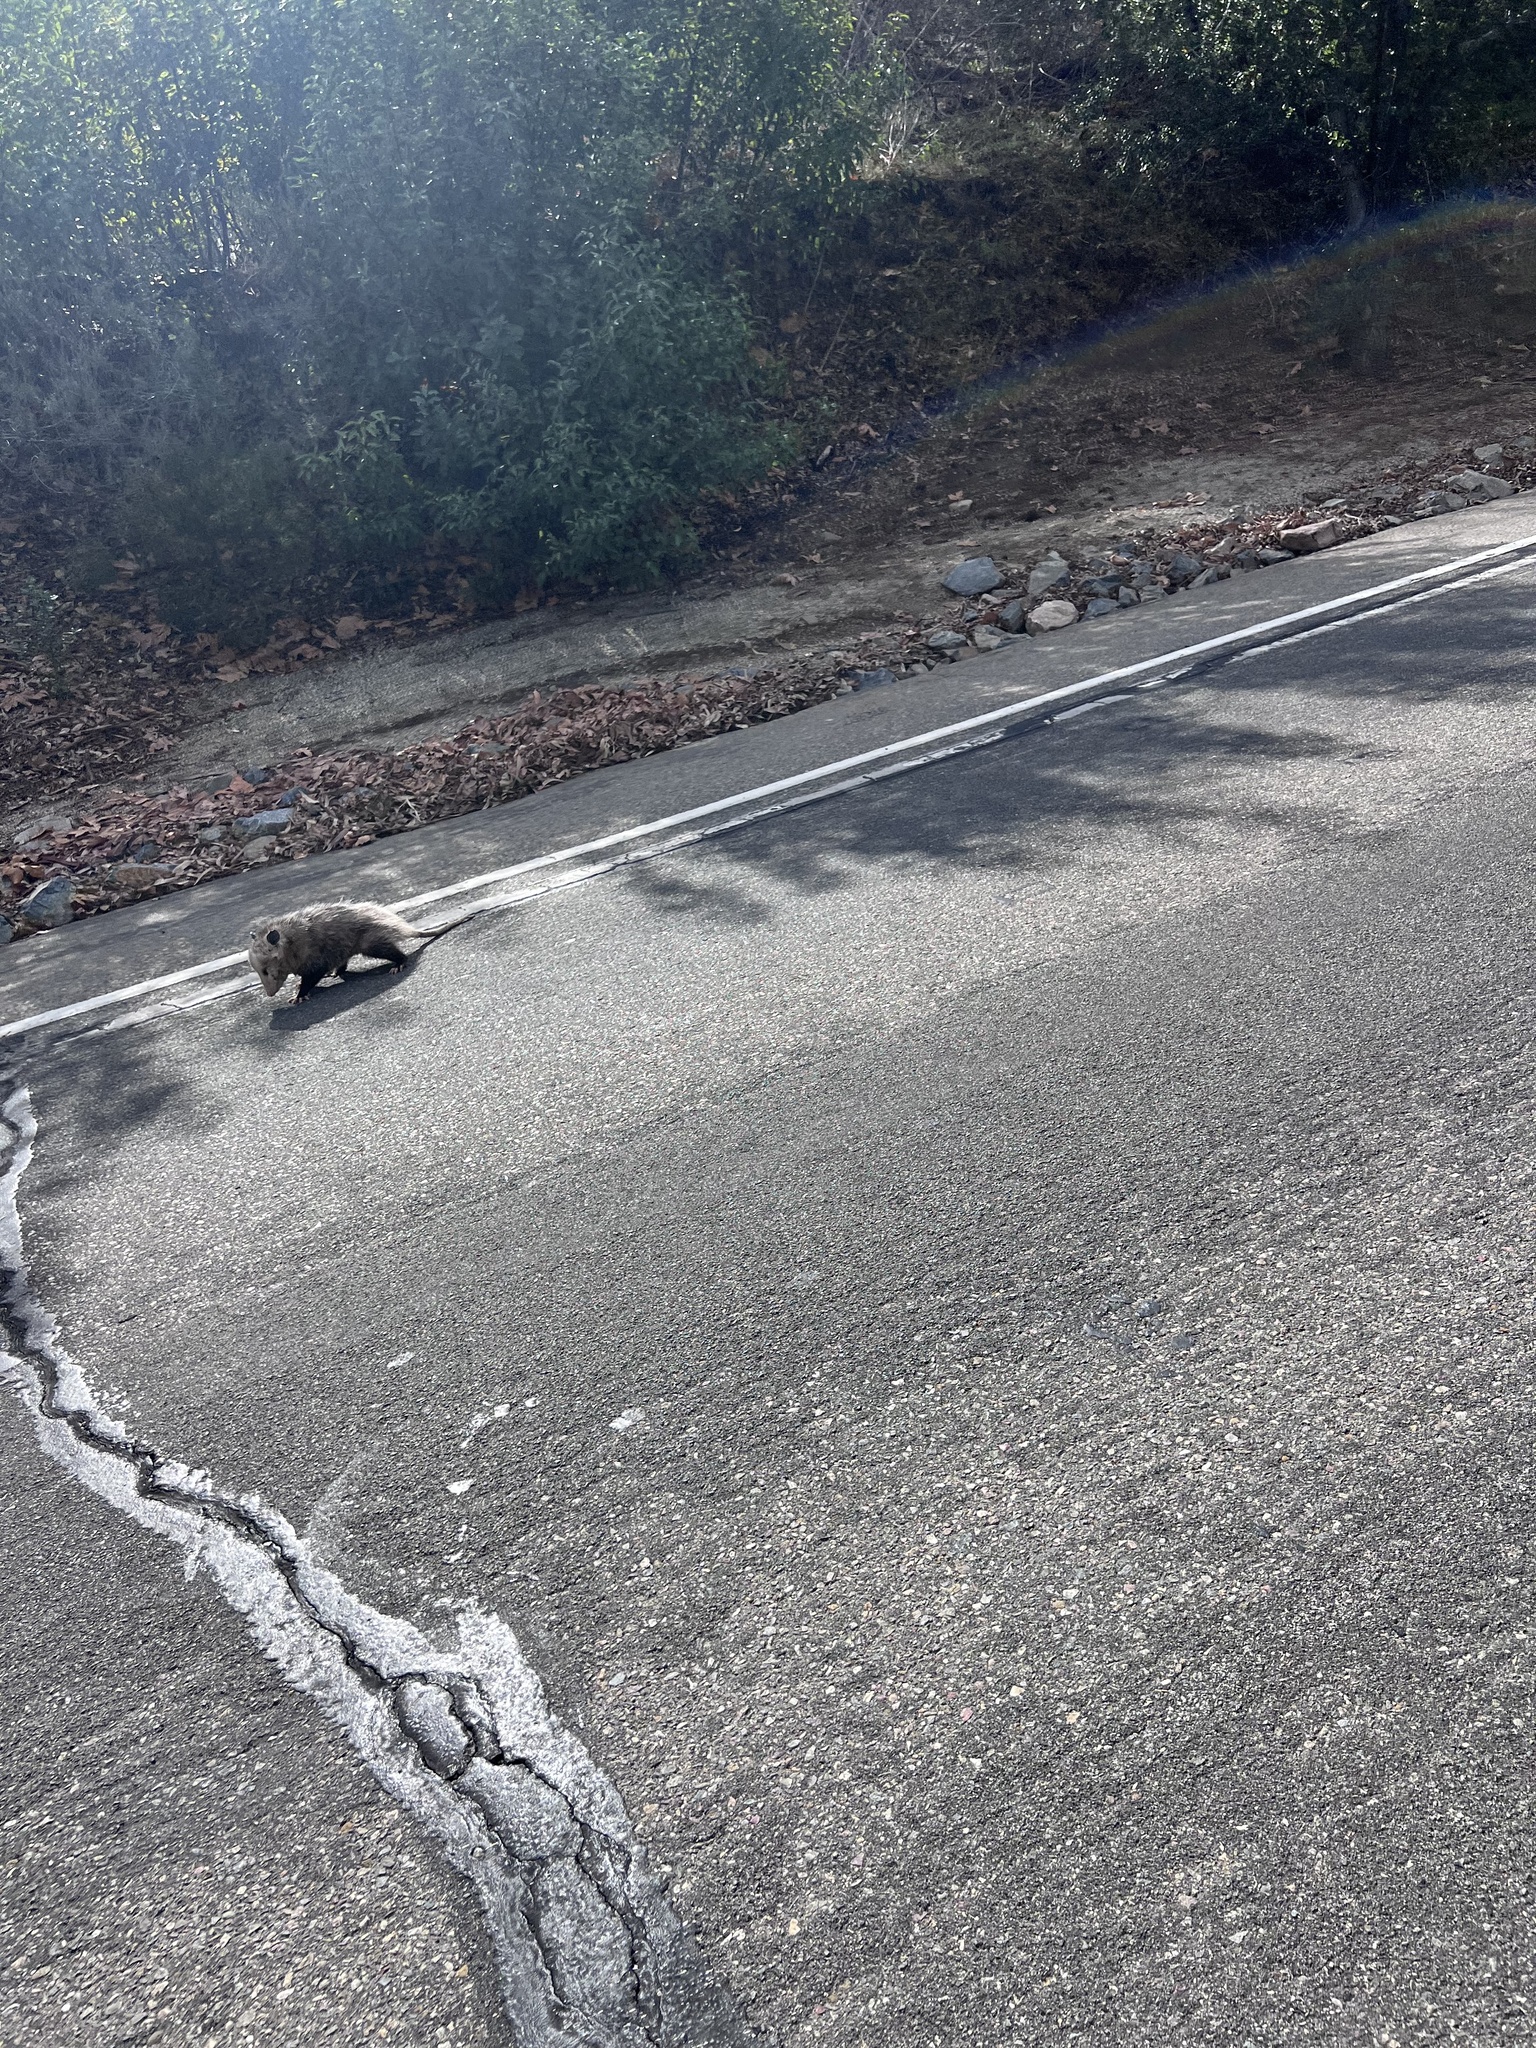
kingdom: Animalia
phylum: Chordata
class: Mammalia
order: Didelphimorphia
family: Didelphidae
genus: Didelphis
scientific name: Didelphis virginiana
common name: Virginia opossum
